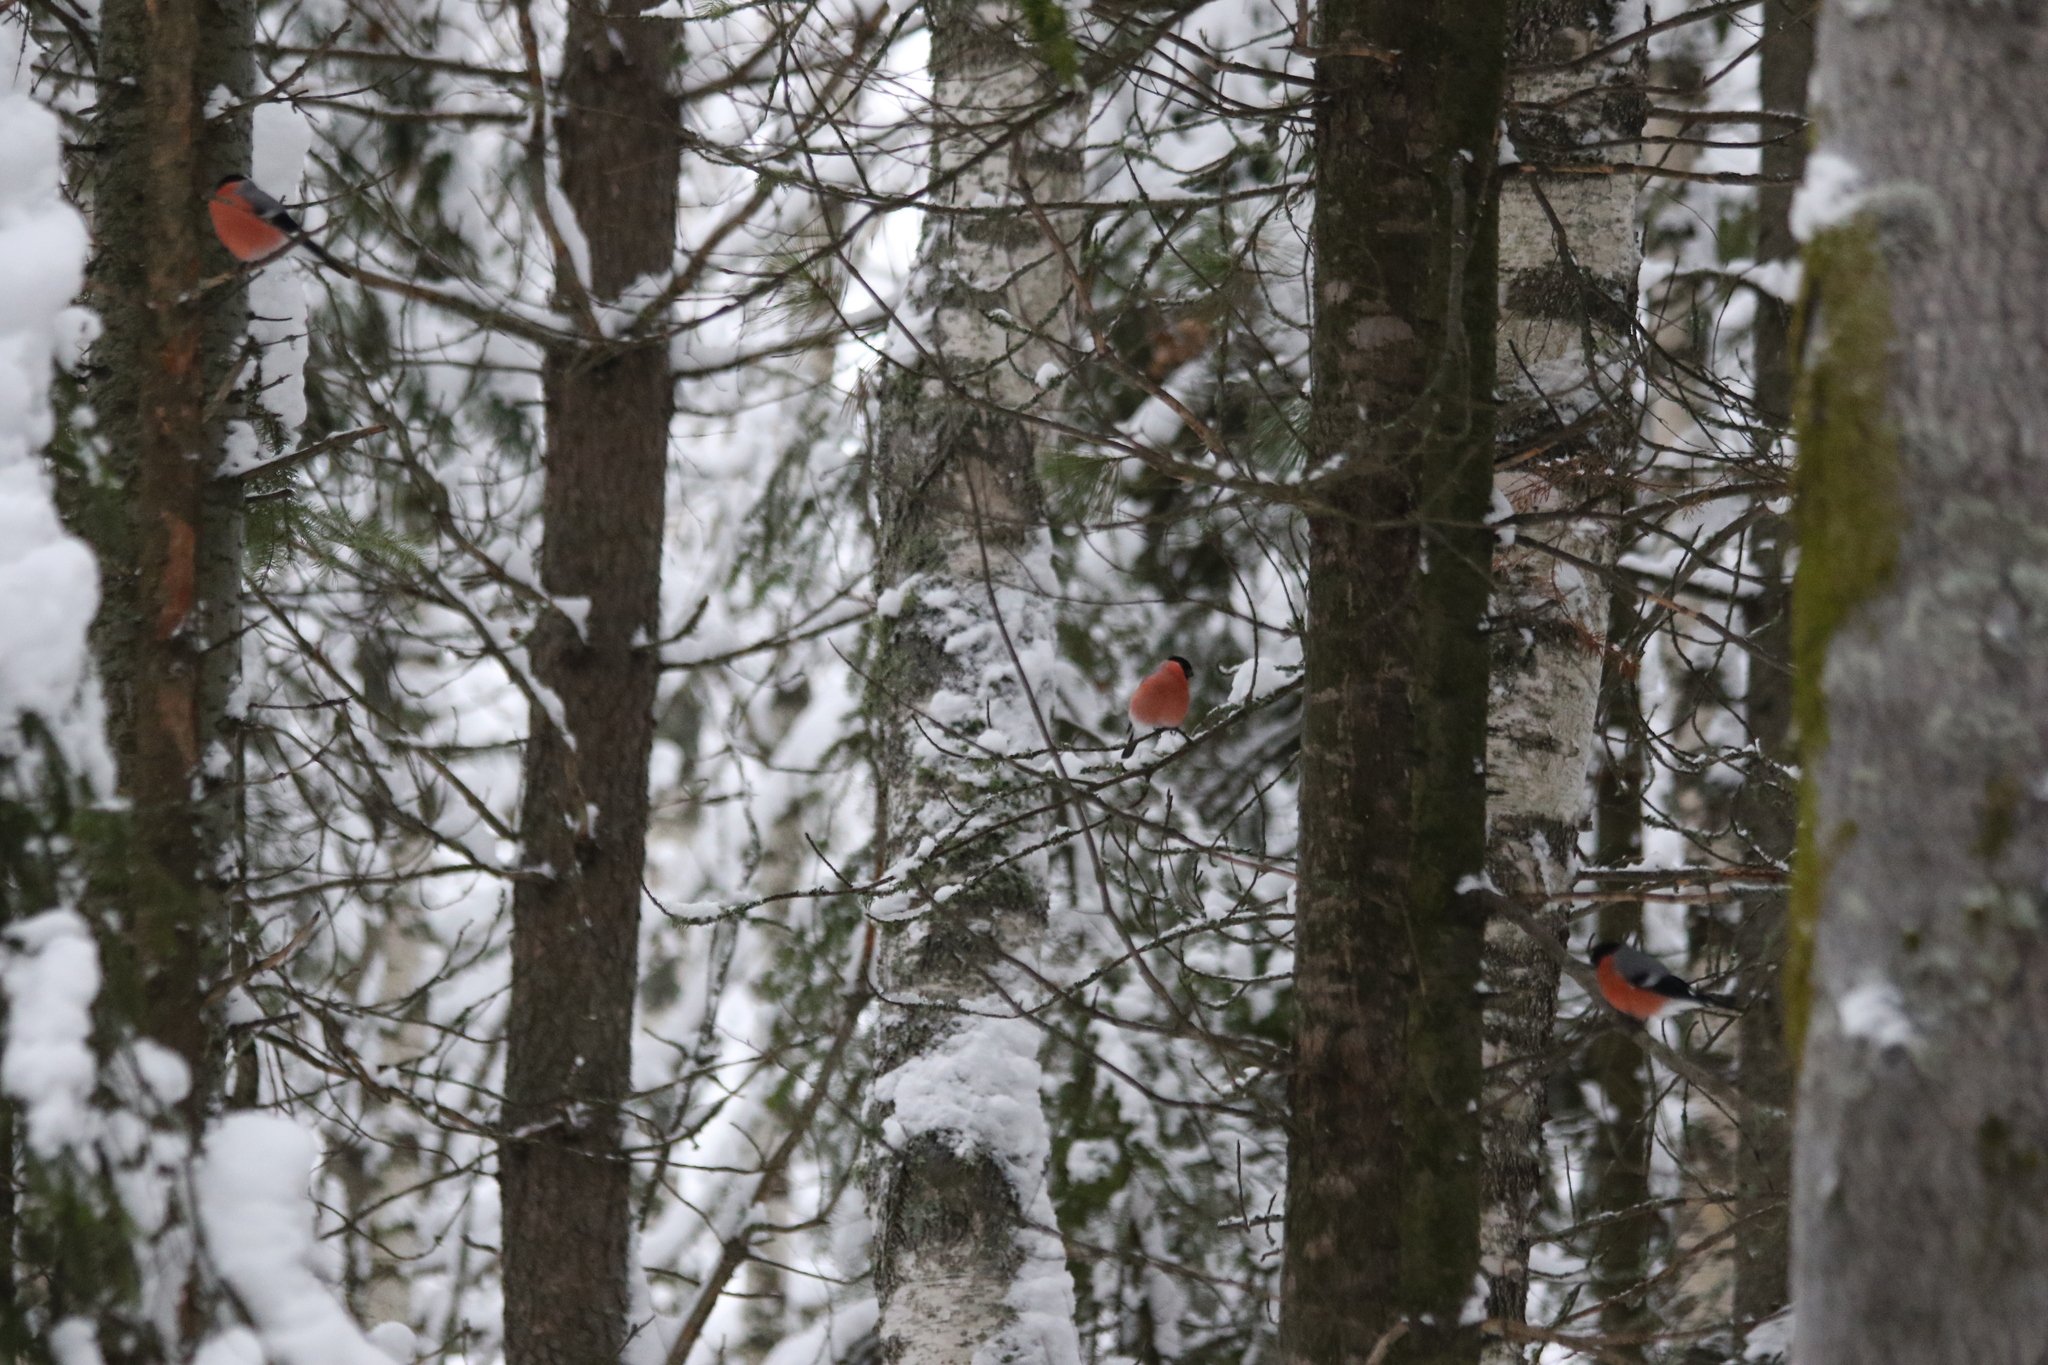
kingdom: Animalia
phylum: Chordata
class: Aves
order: Passeriformes
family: Fringillidae
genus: Pyrrhula
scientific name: Pyrrhula pyrrhula
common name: Eurasian bullfinch
